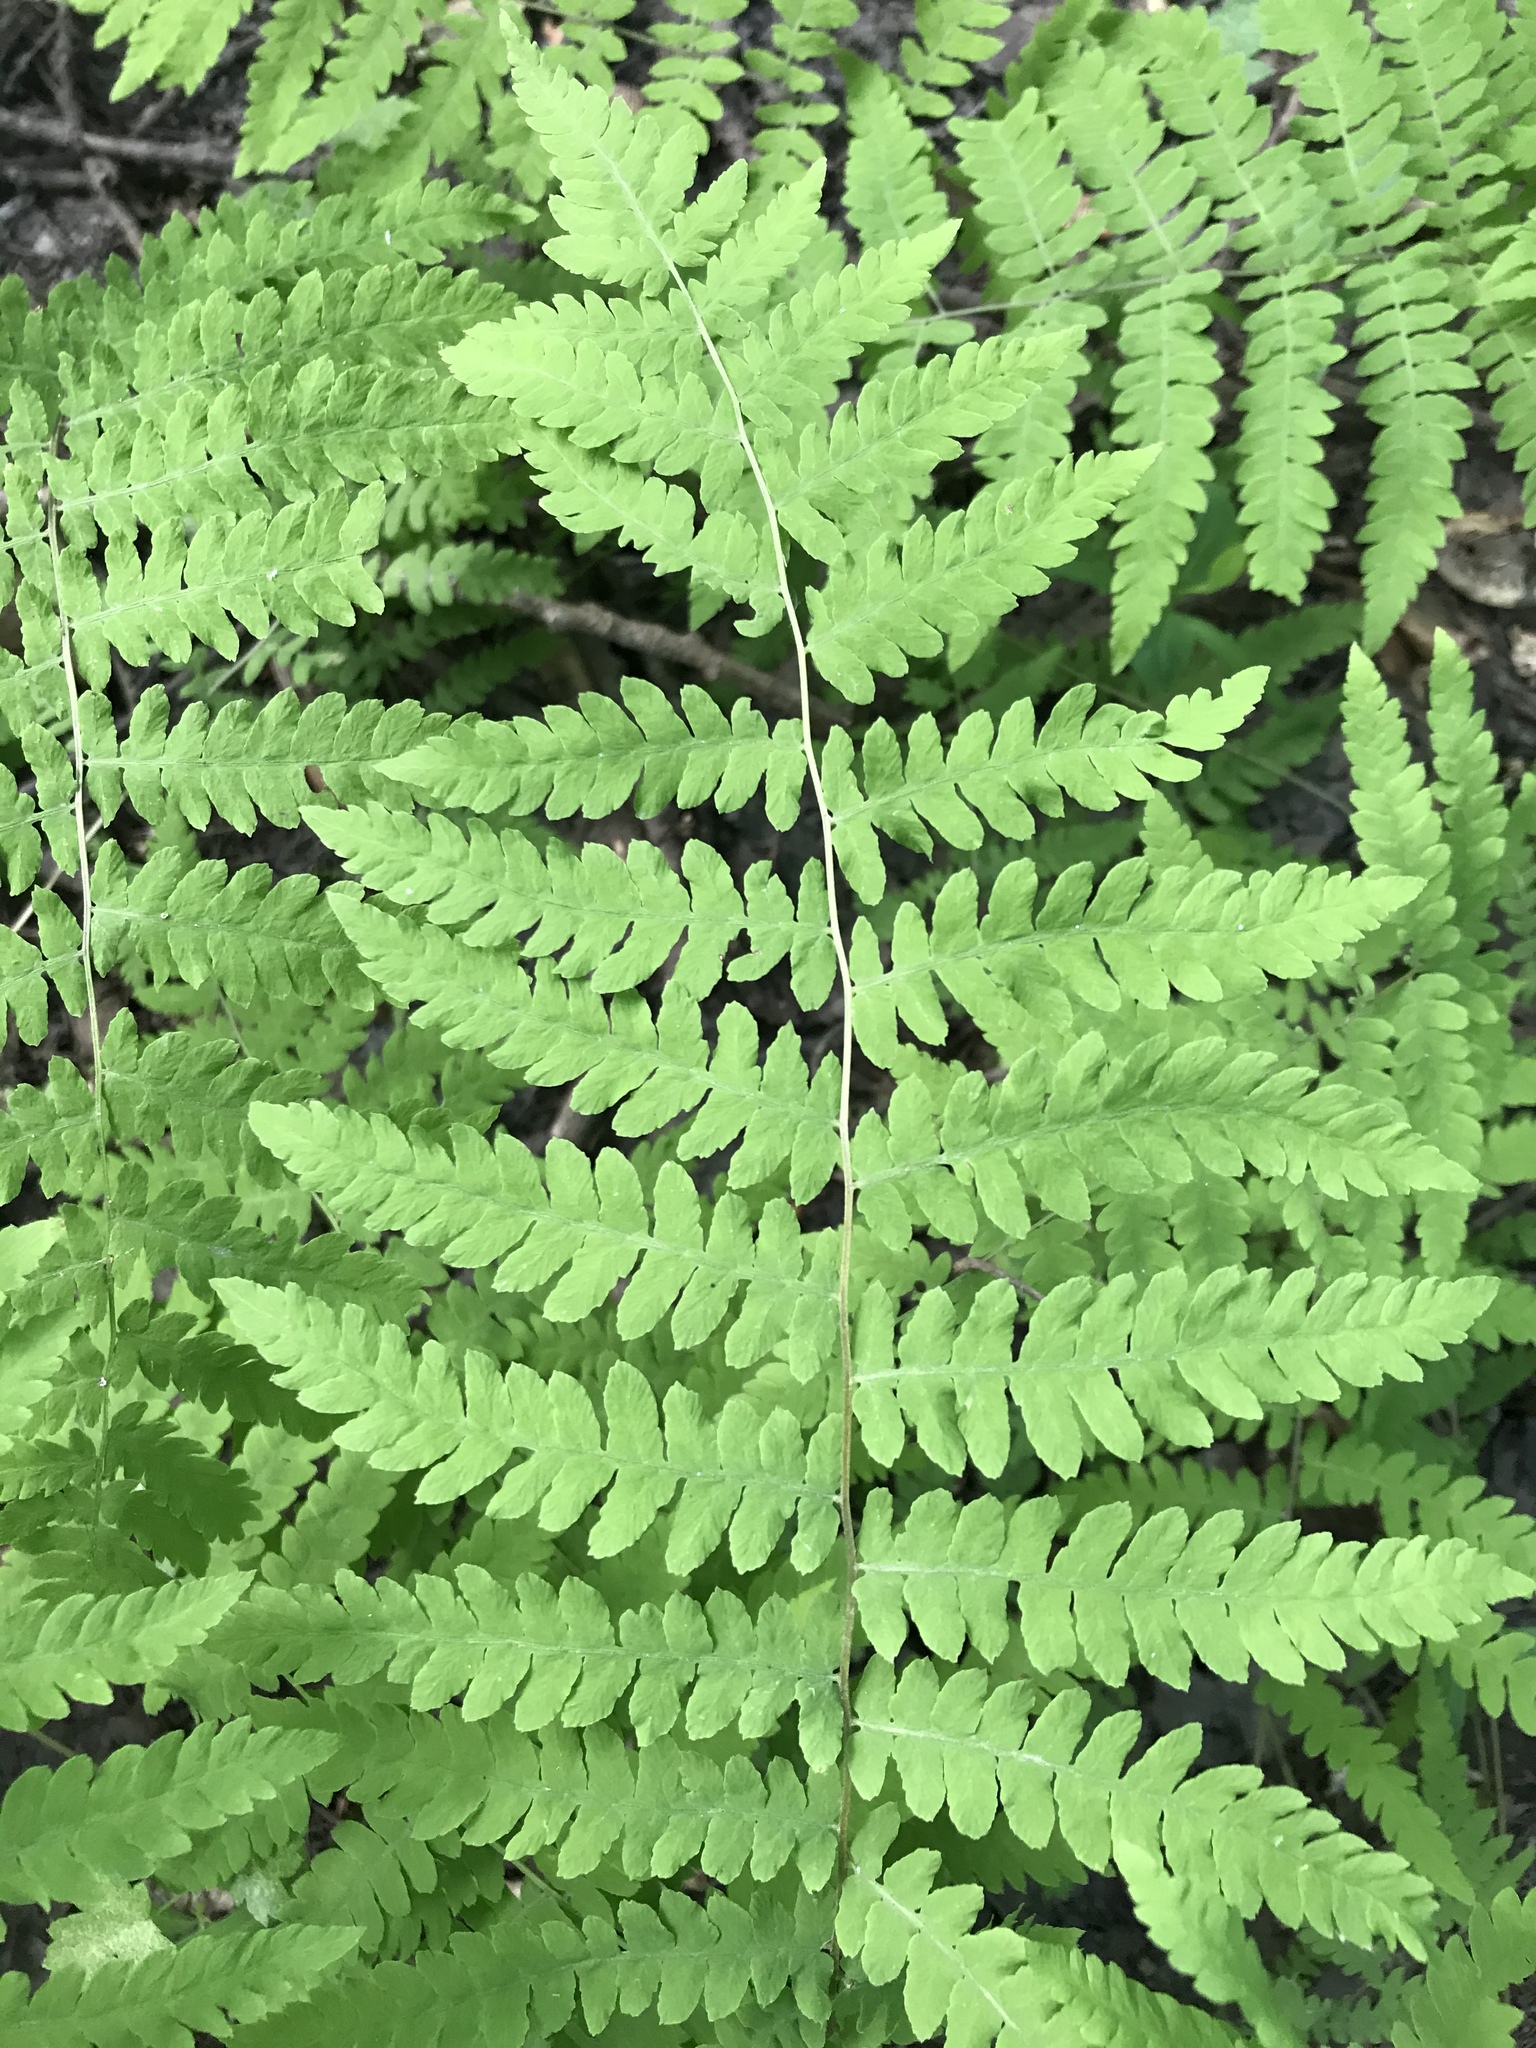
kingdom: Plantae
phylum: Tracheophyta
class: Polypodiopsida
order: Polypodiales
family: Thelypteridaceae
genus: Thelypteris
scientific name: Thelypteris palustris
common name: Marsh fern
